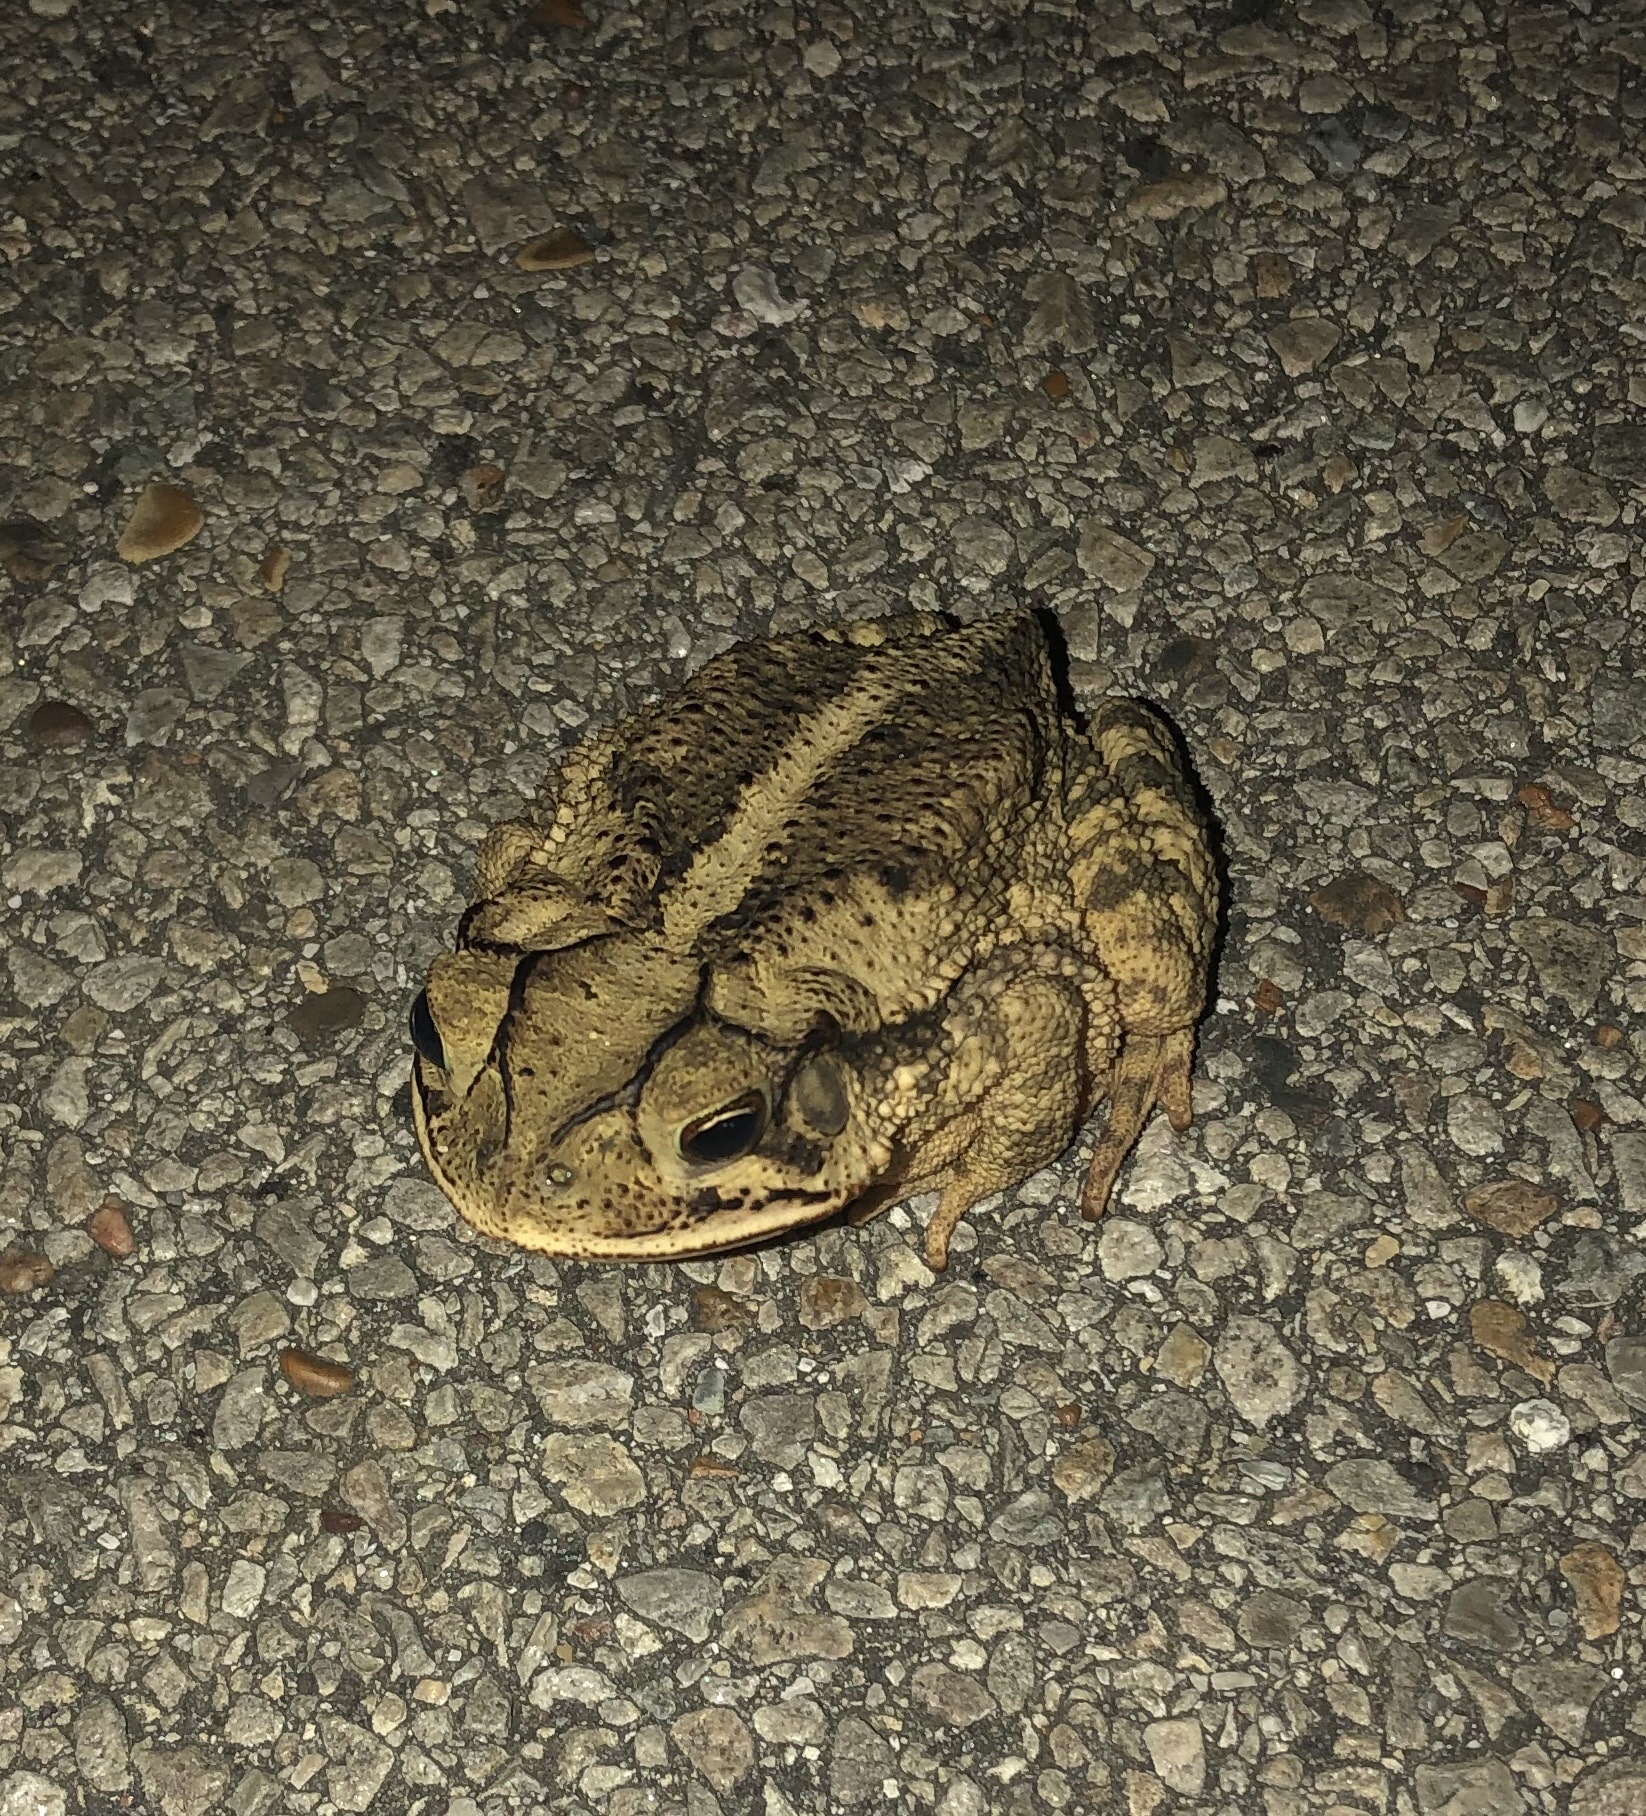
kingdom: Animalia
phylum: Chordata
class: Amphibia
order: Anura
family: Bufonidae
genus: Incilius
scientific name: Incilius nebulifer
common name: Gulf coast toad
